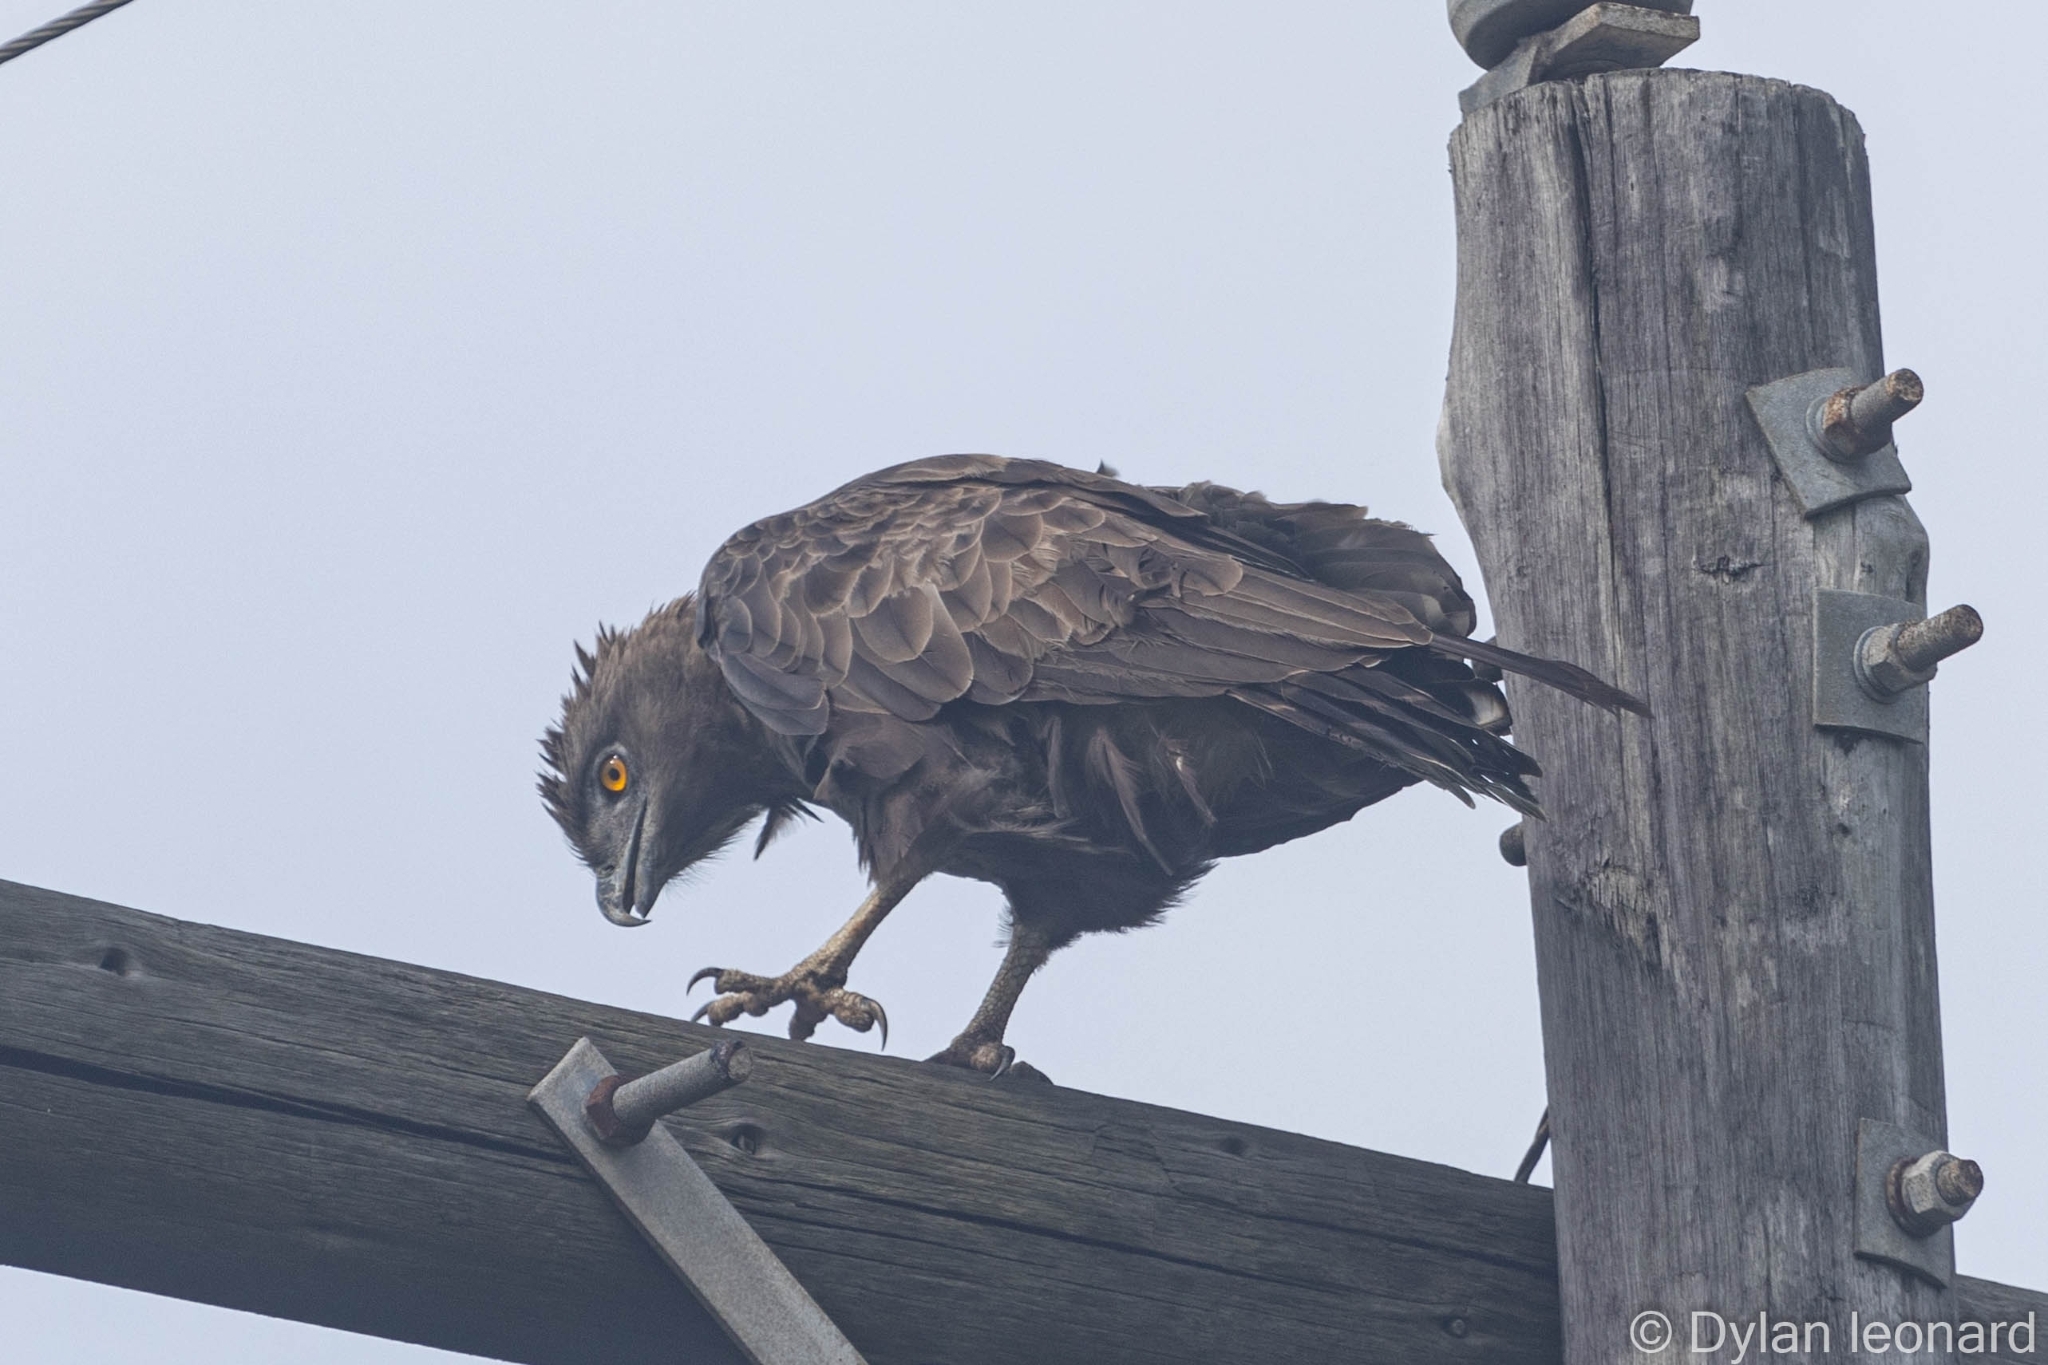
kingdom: Animalia
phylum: Chordata
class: Aves
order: Accipitriformes
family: Accipitridae
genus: Circaetus
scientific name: Circaetus cinereus
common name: Brown snake eagle
